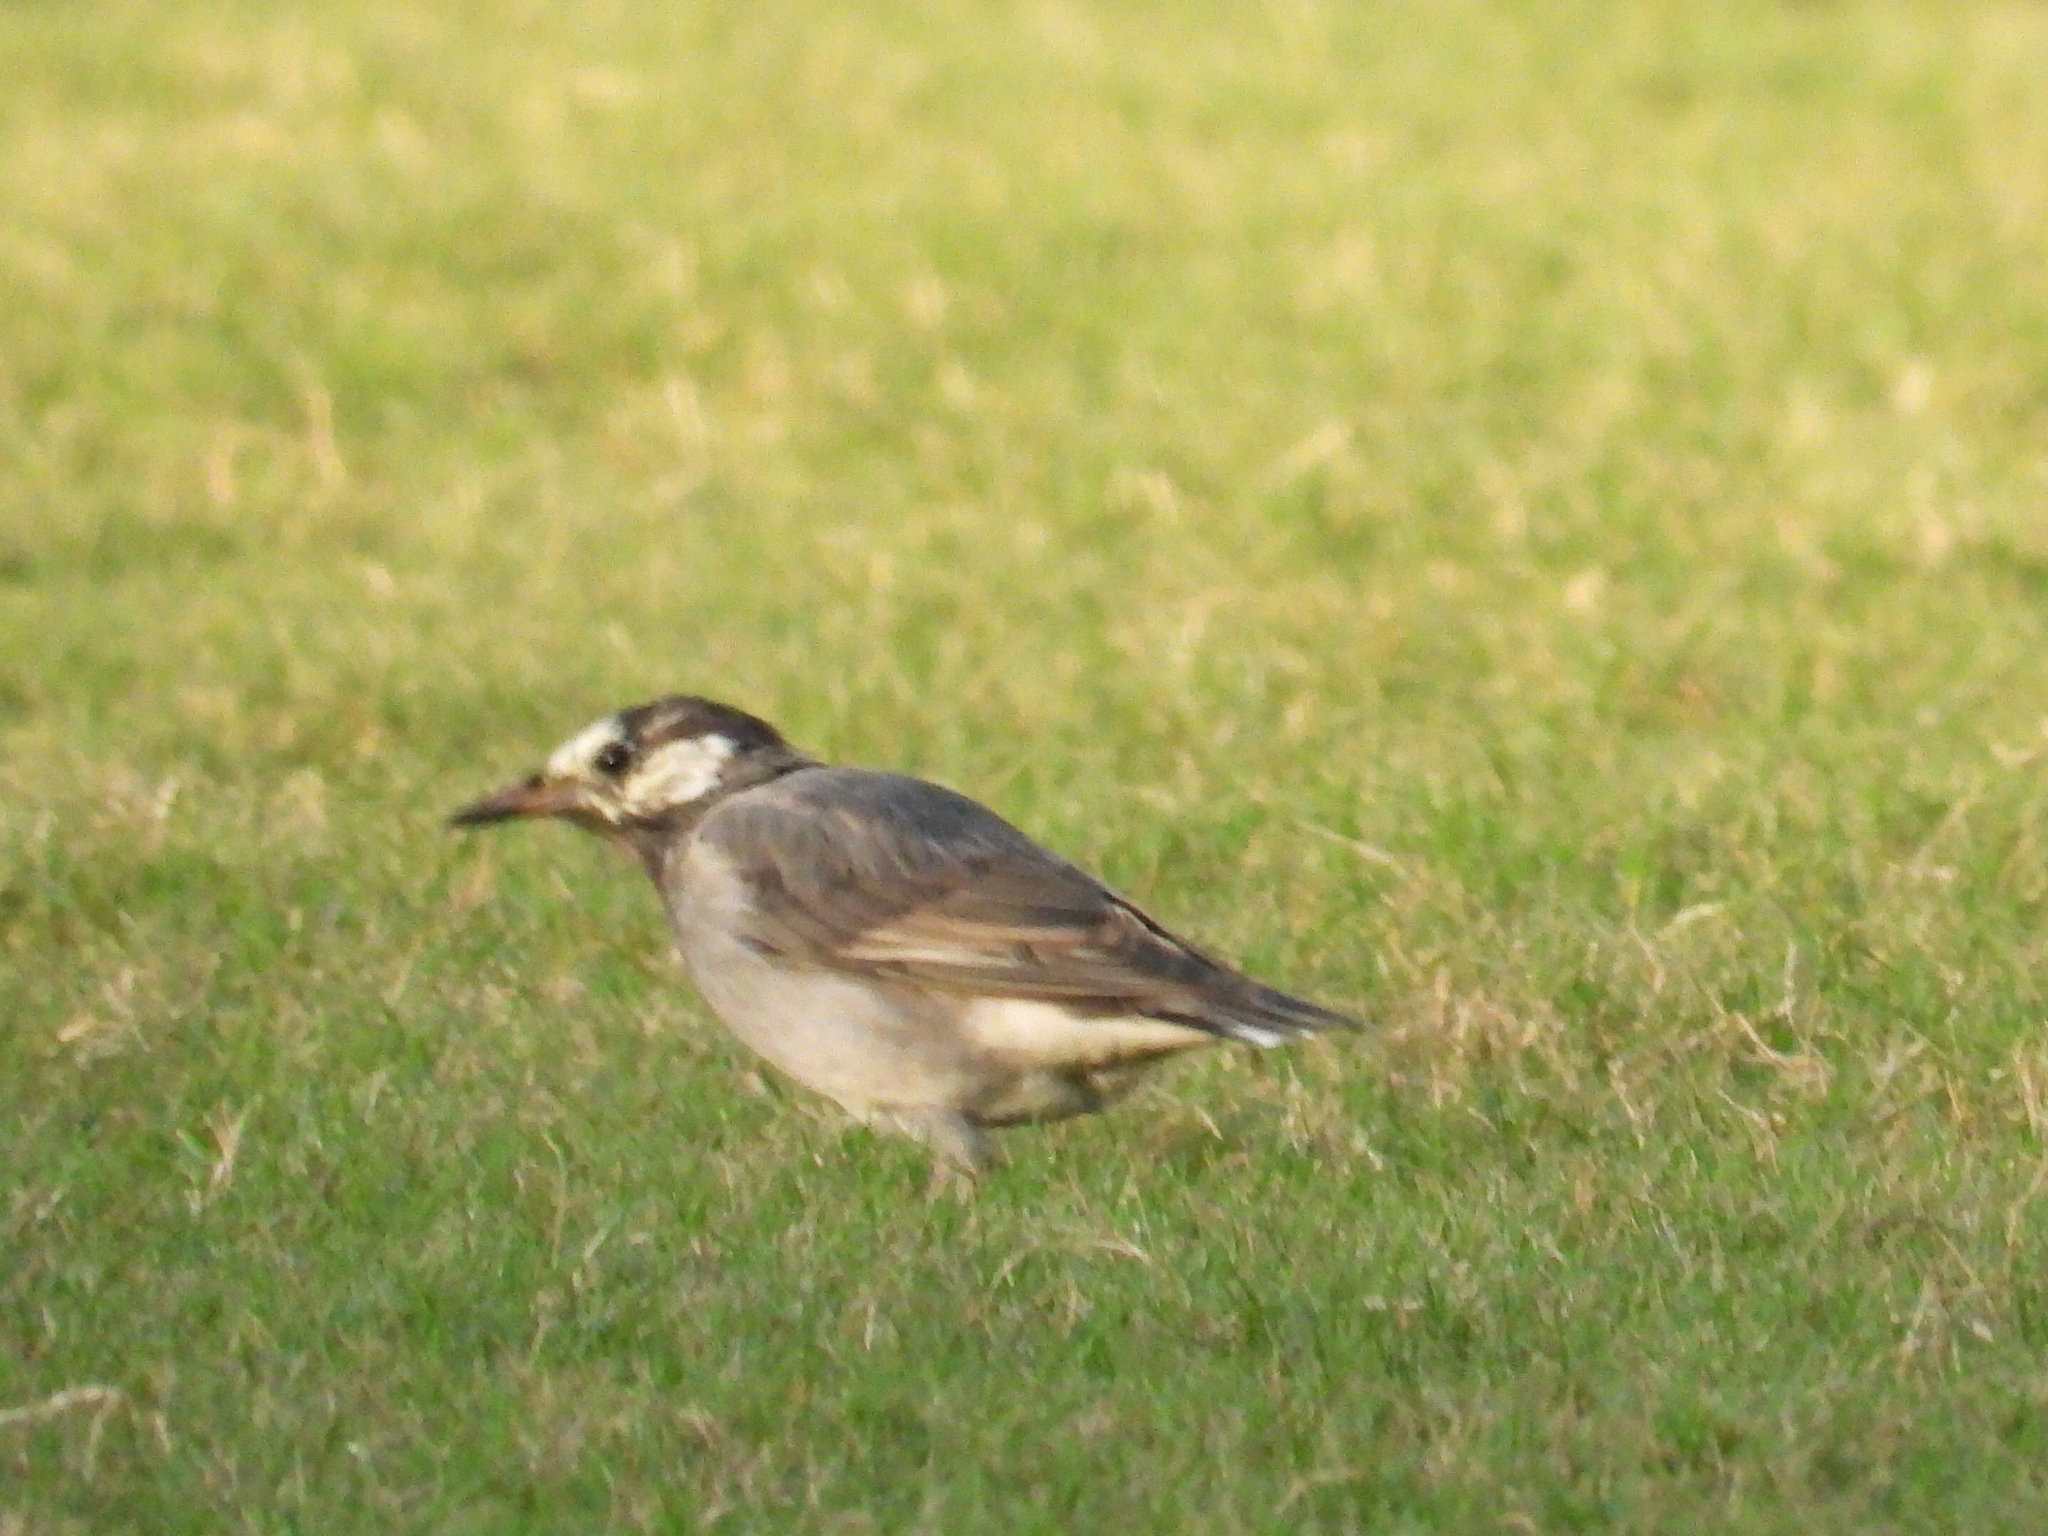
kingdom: Animalia
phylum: Chordata
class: Aves
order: Passeriformes
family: Sturnidae
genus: Spodiopsar
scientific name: Spodiopsar cineraceus
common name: White-cheeked starling
